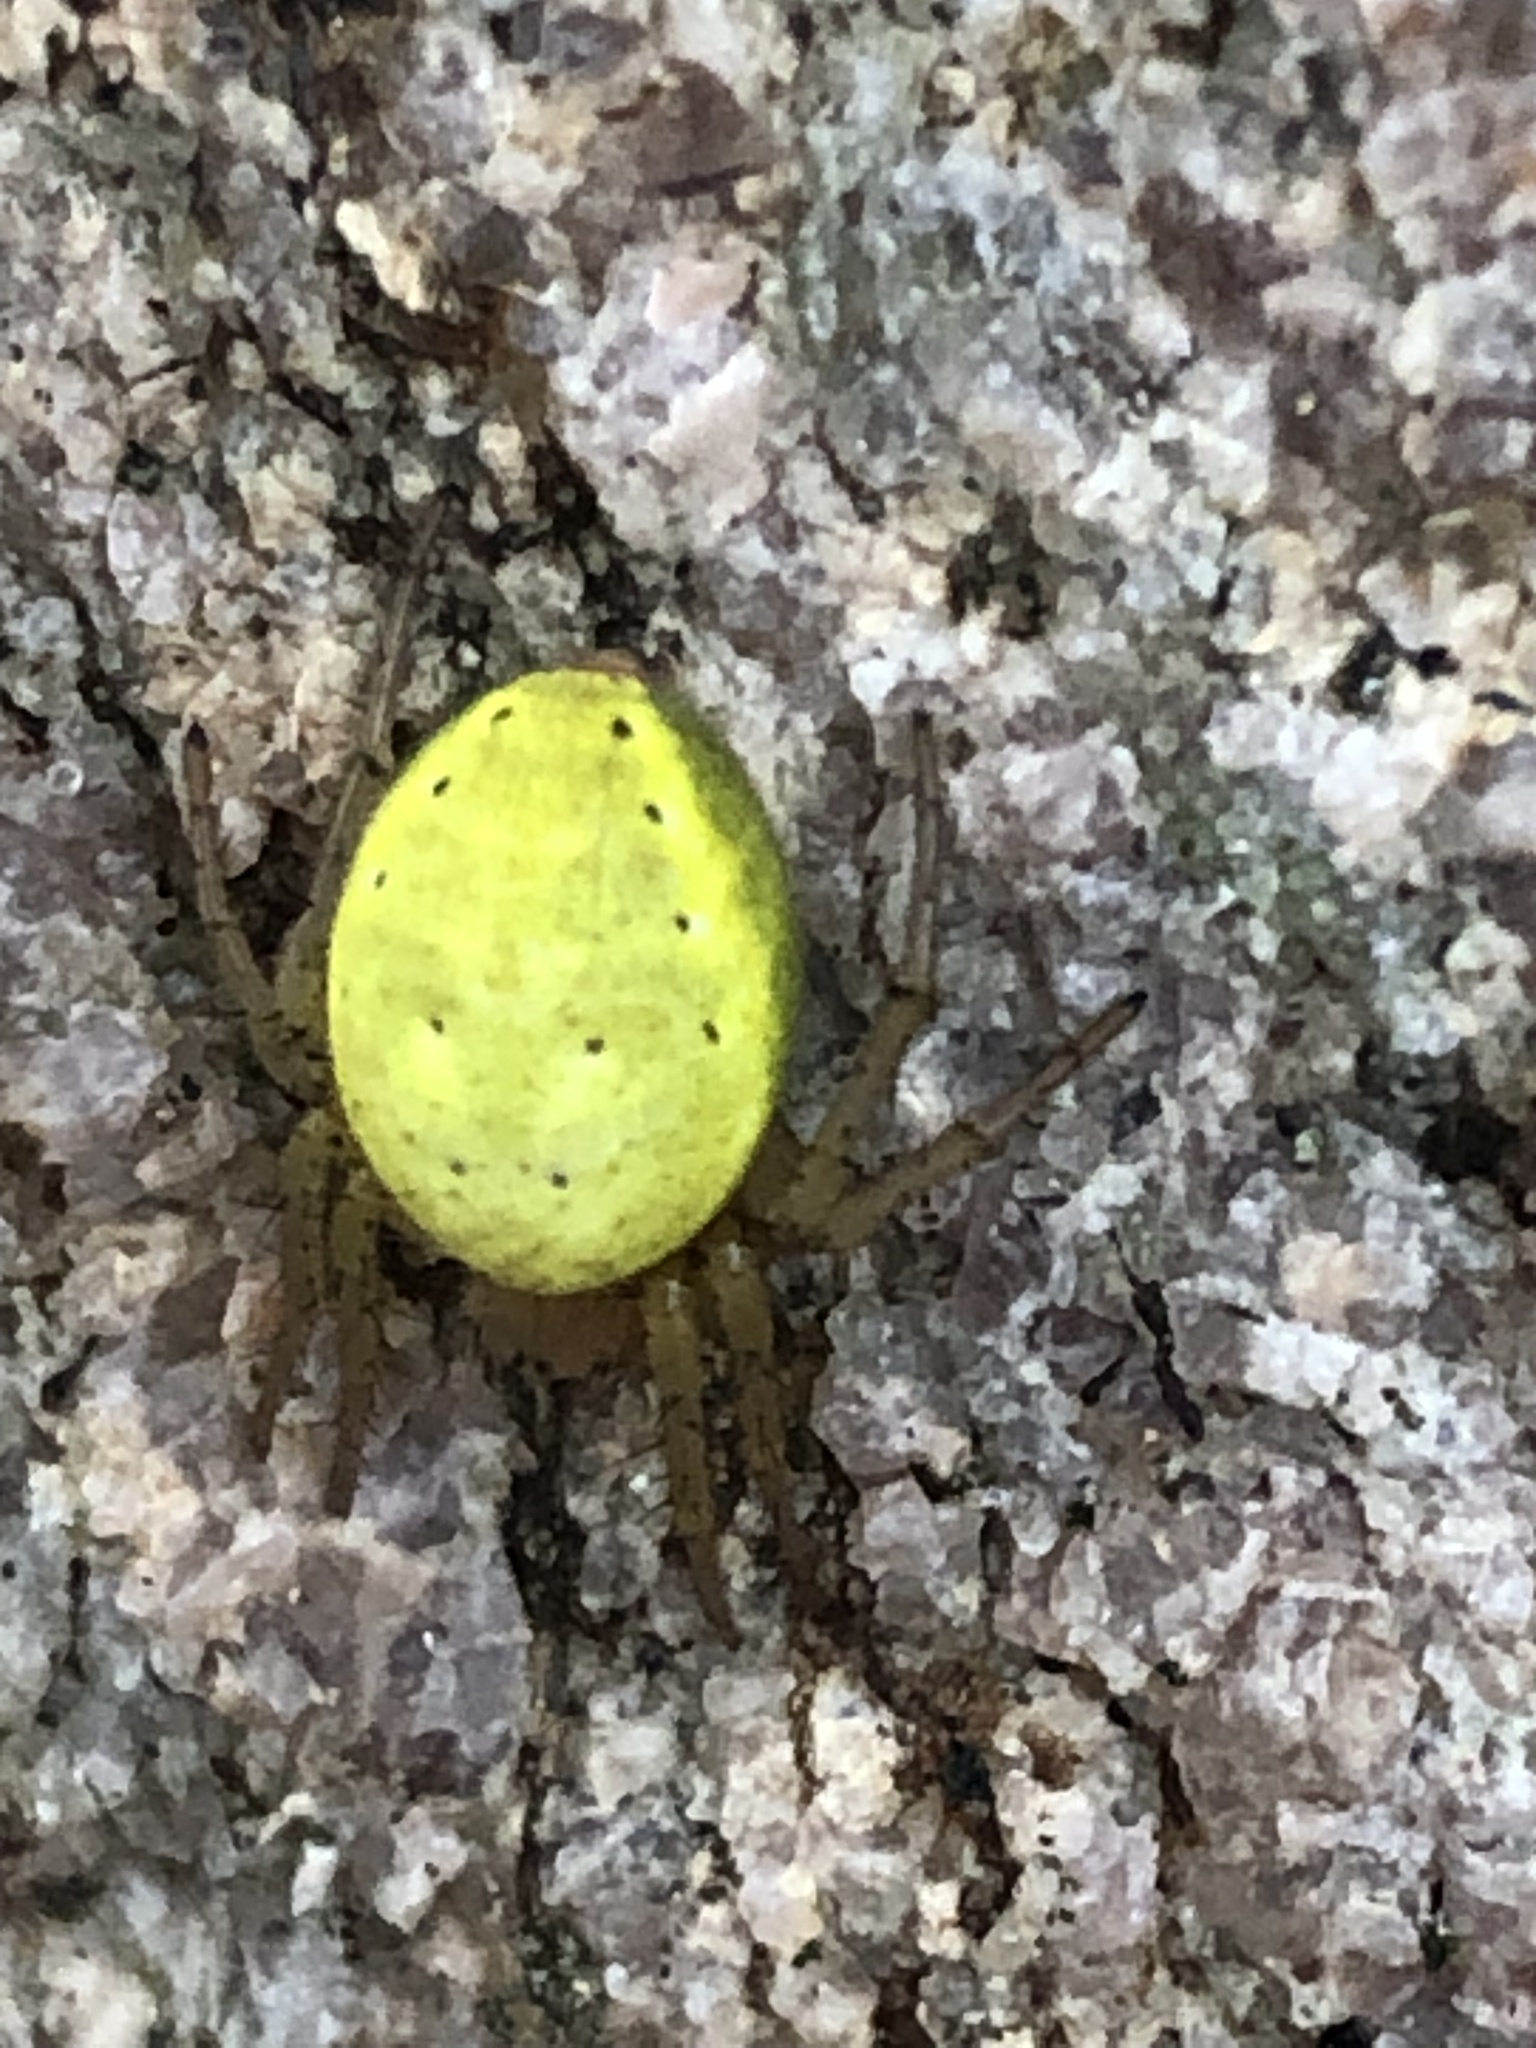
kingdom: Animalia
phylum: Arthropoda
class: Arachnida
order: Araneae
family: Araneidae
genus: Araniella
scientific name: Araniella
